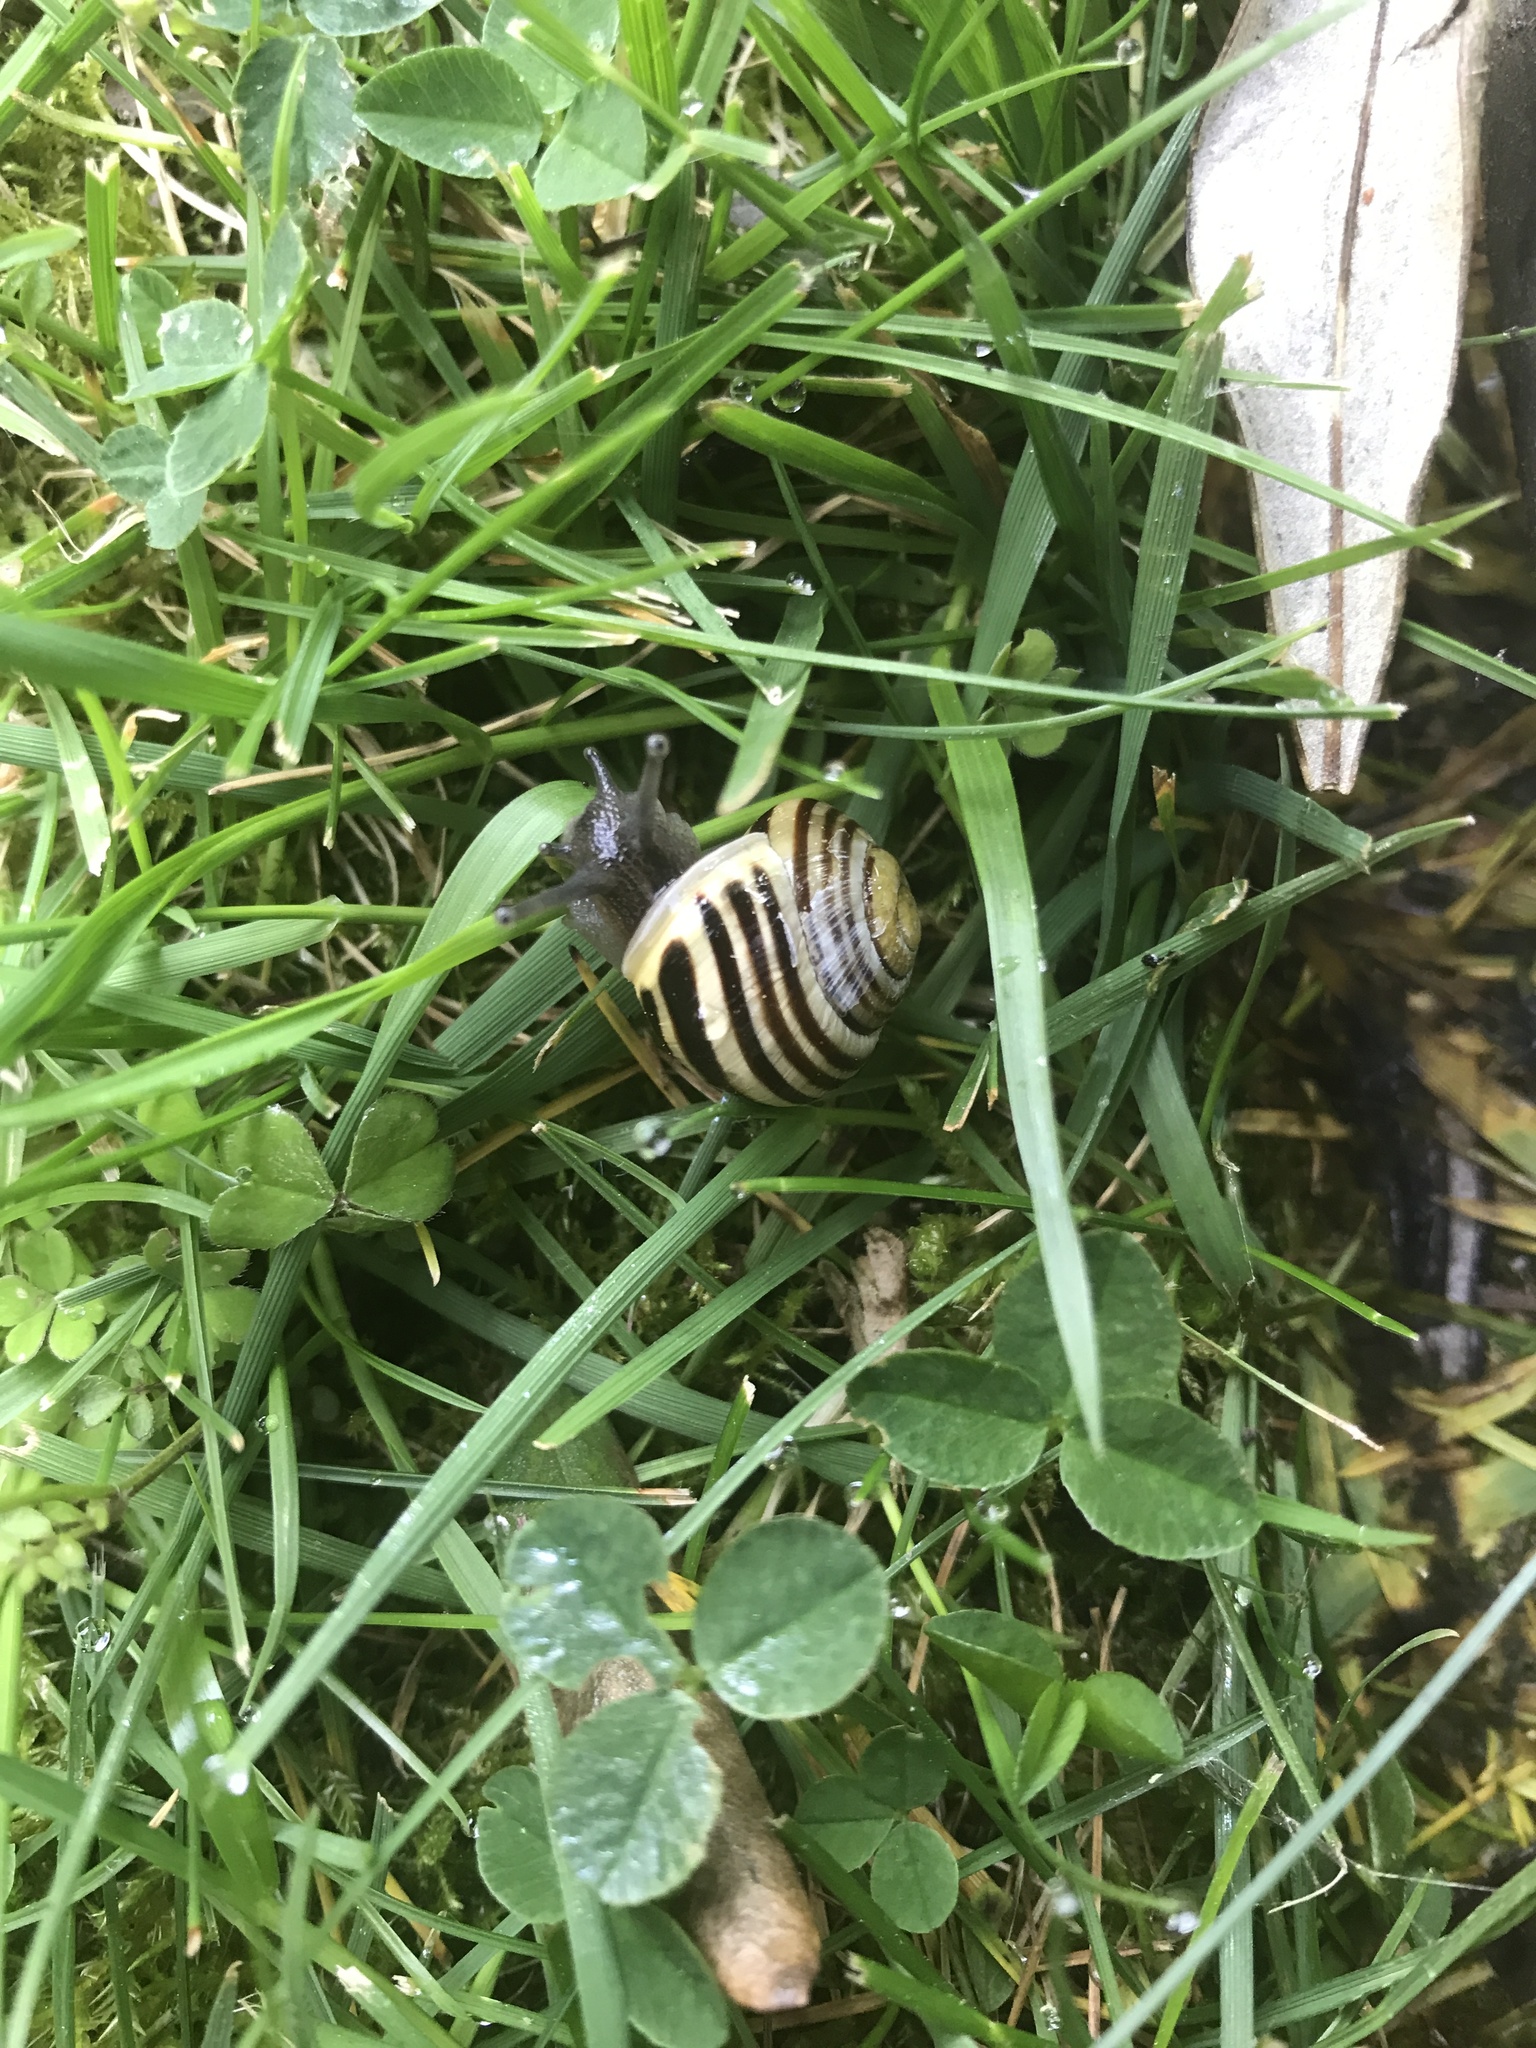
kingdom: Animalia
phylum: Mollusca
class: Gastropoda
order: Stylommatophora
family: Helicidae
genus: Cepaea
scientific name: Cepaea hortensis
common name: White-lip gardensnail
